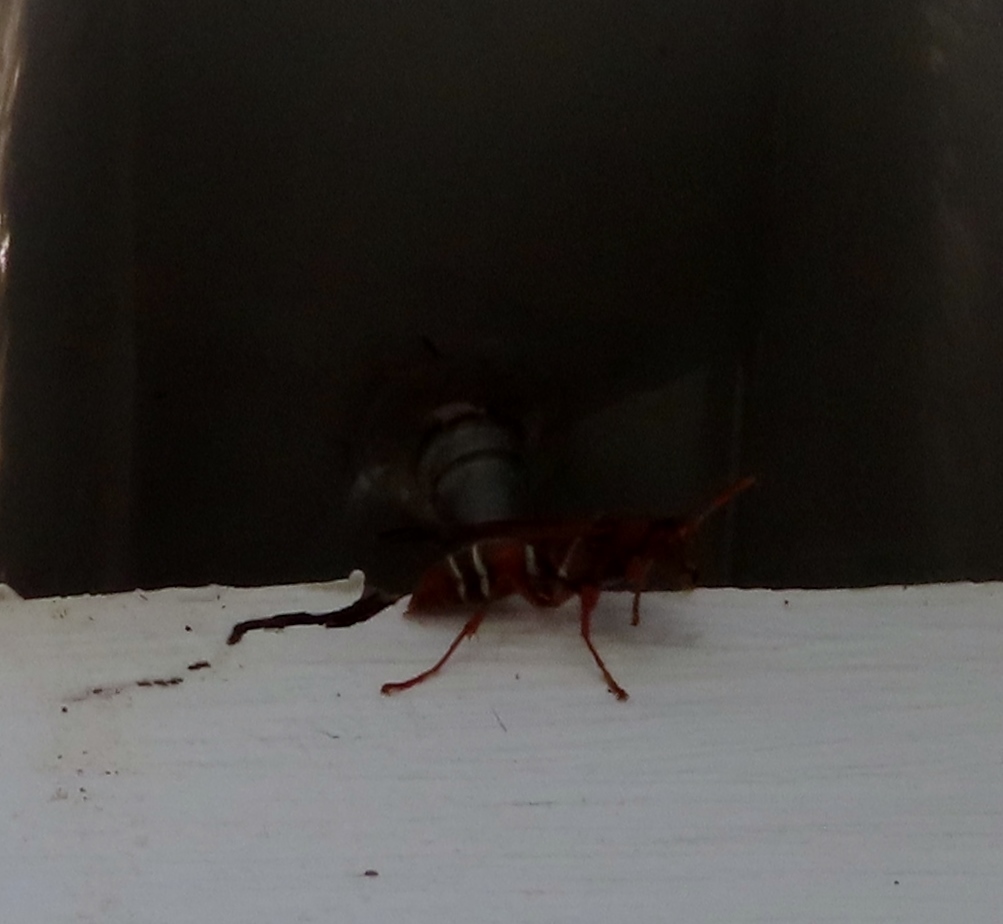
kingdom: Animalia
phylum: Arthropoda
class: Insecta
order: Hymenoptera
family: Eumenidae
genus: Polistes
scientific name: Polistes marginalis
